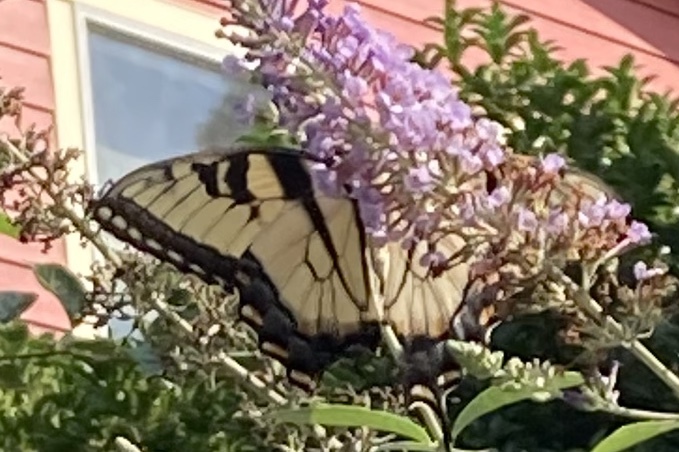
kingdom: Animalia
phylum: Arthropoda
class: Insecta
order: Lepidoptera
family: Papilionidae
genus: Papilio
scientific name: Papilio glaucus
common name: Tiger swallowtail
